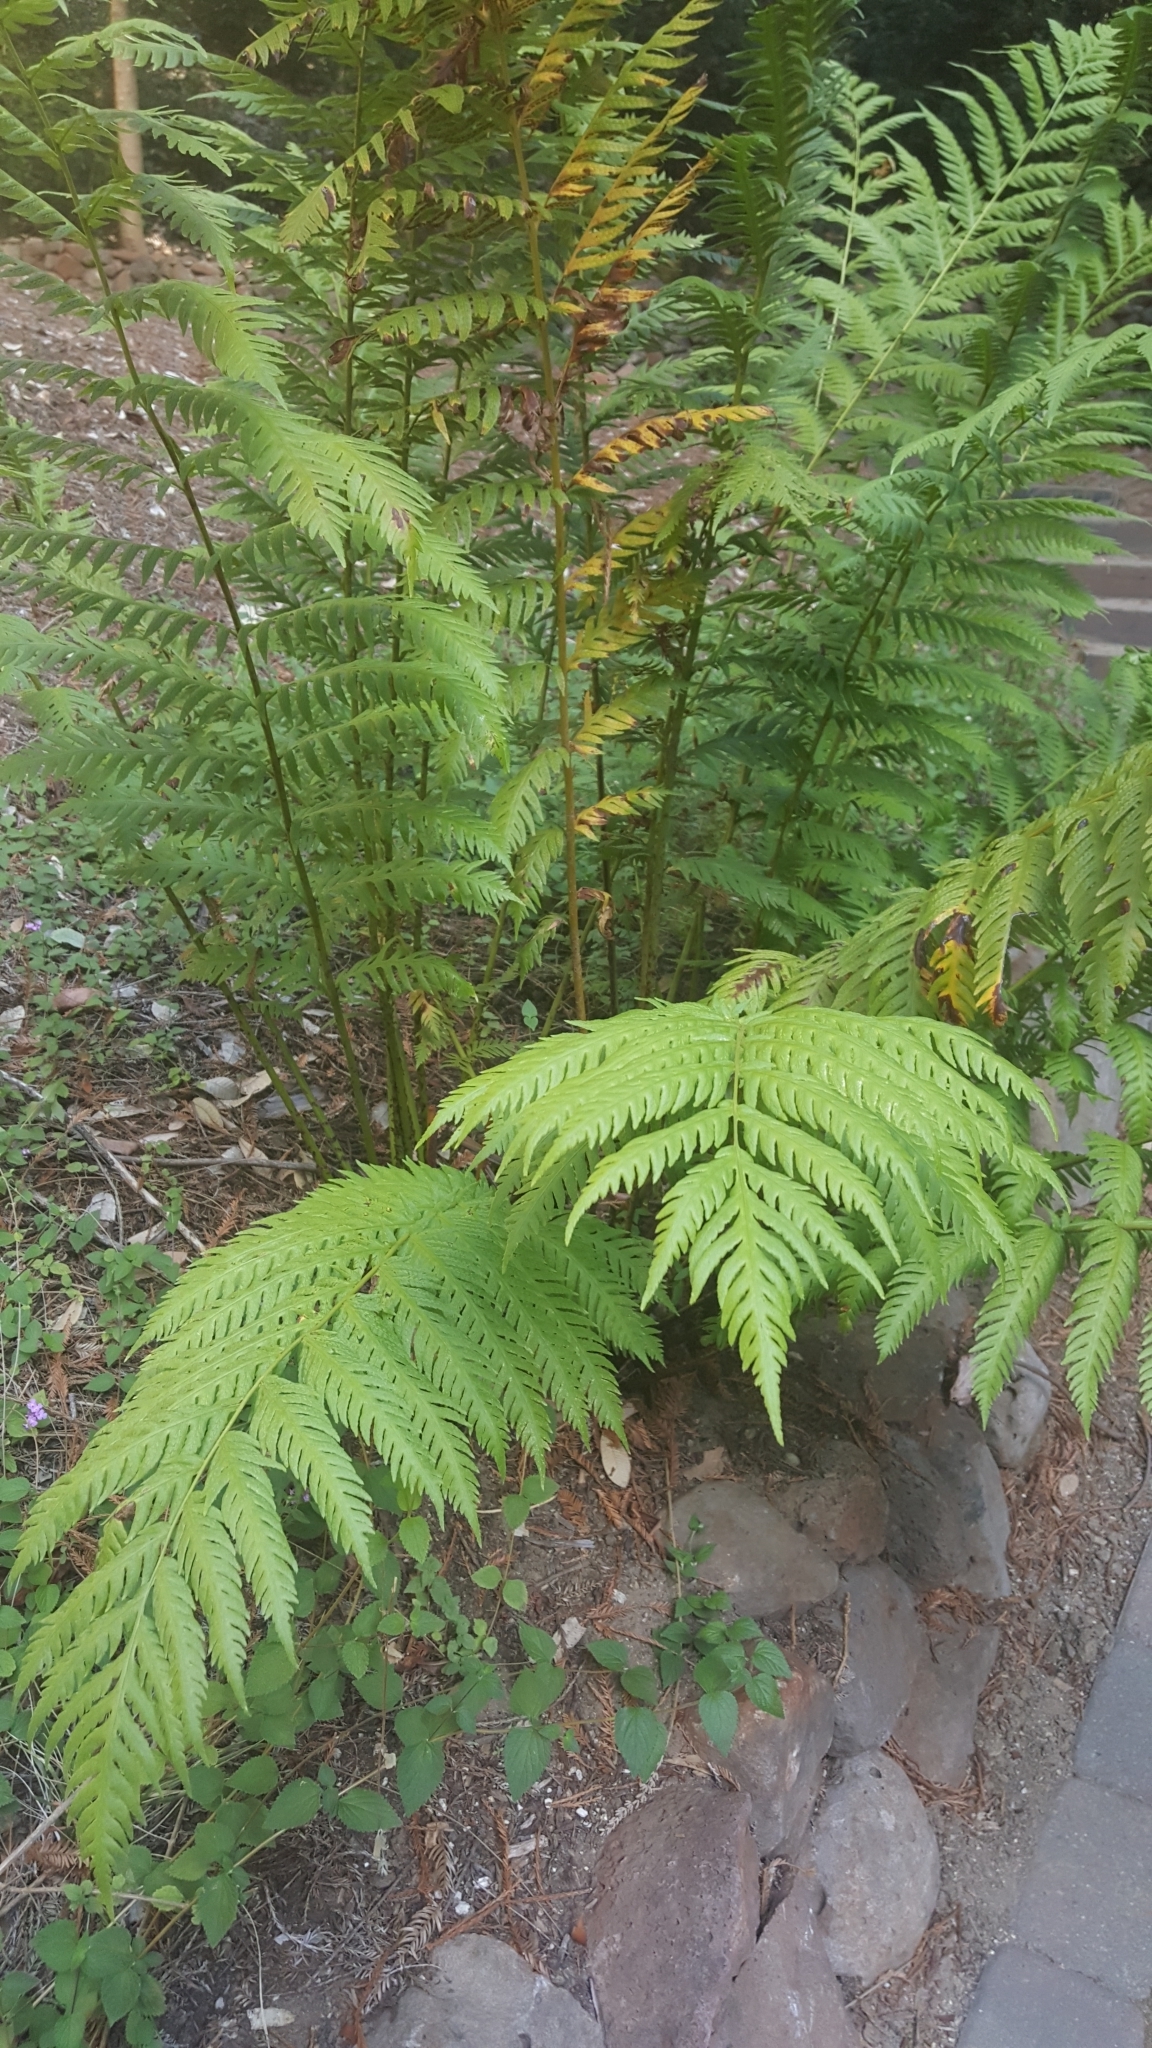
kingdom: Plantae
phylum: Tracheophyta
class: Polypodiopsida
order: Polypodiales
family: Blechnaceae
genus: Woodwardia
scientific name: Woodwardia fimbriata
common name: Giant chain fern
